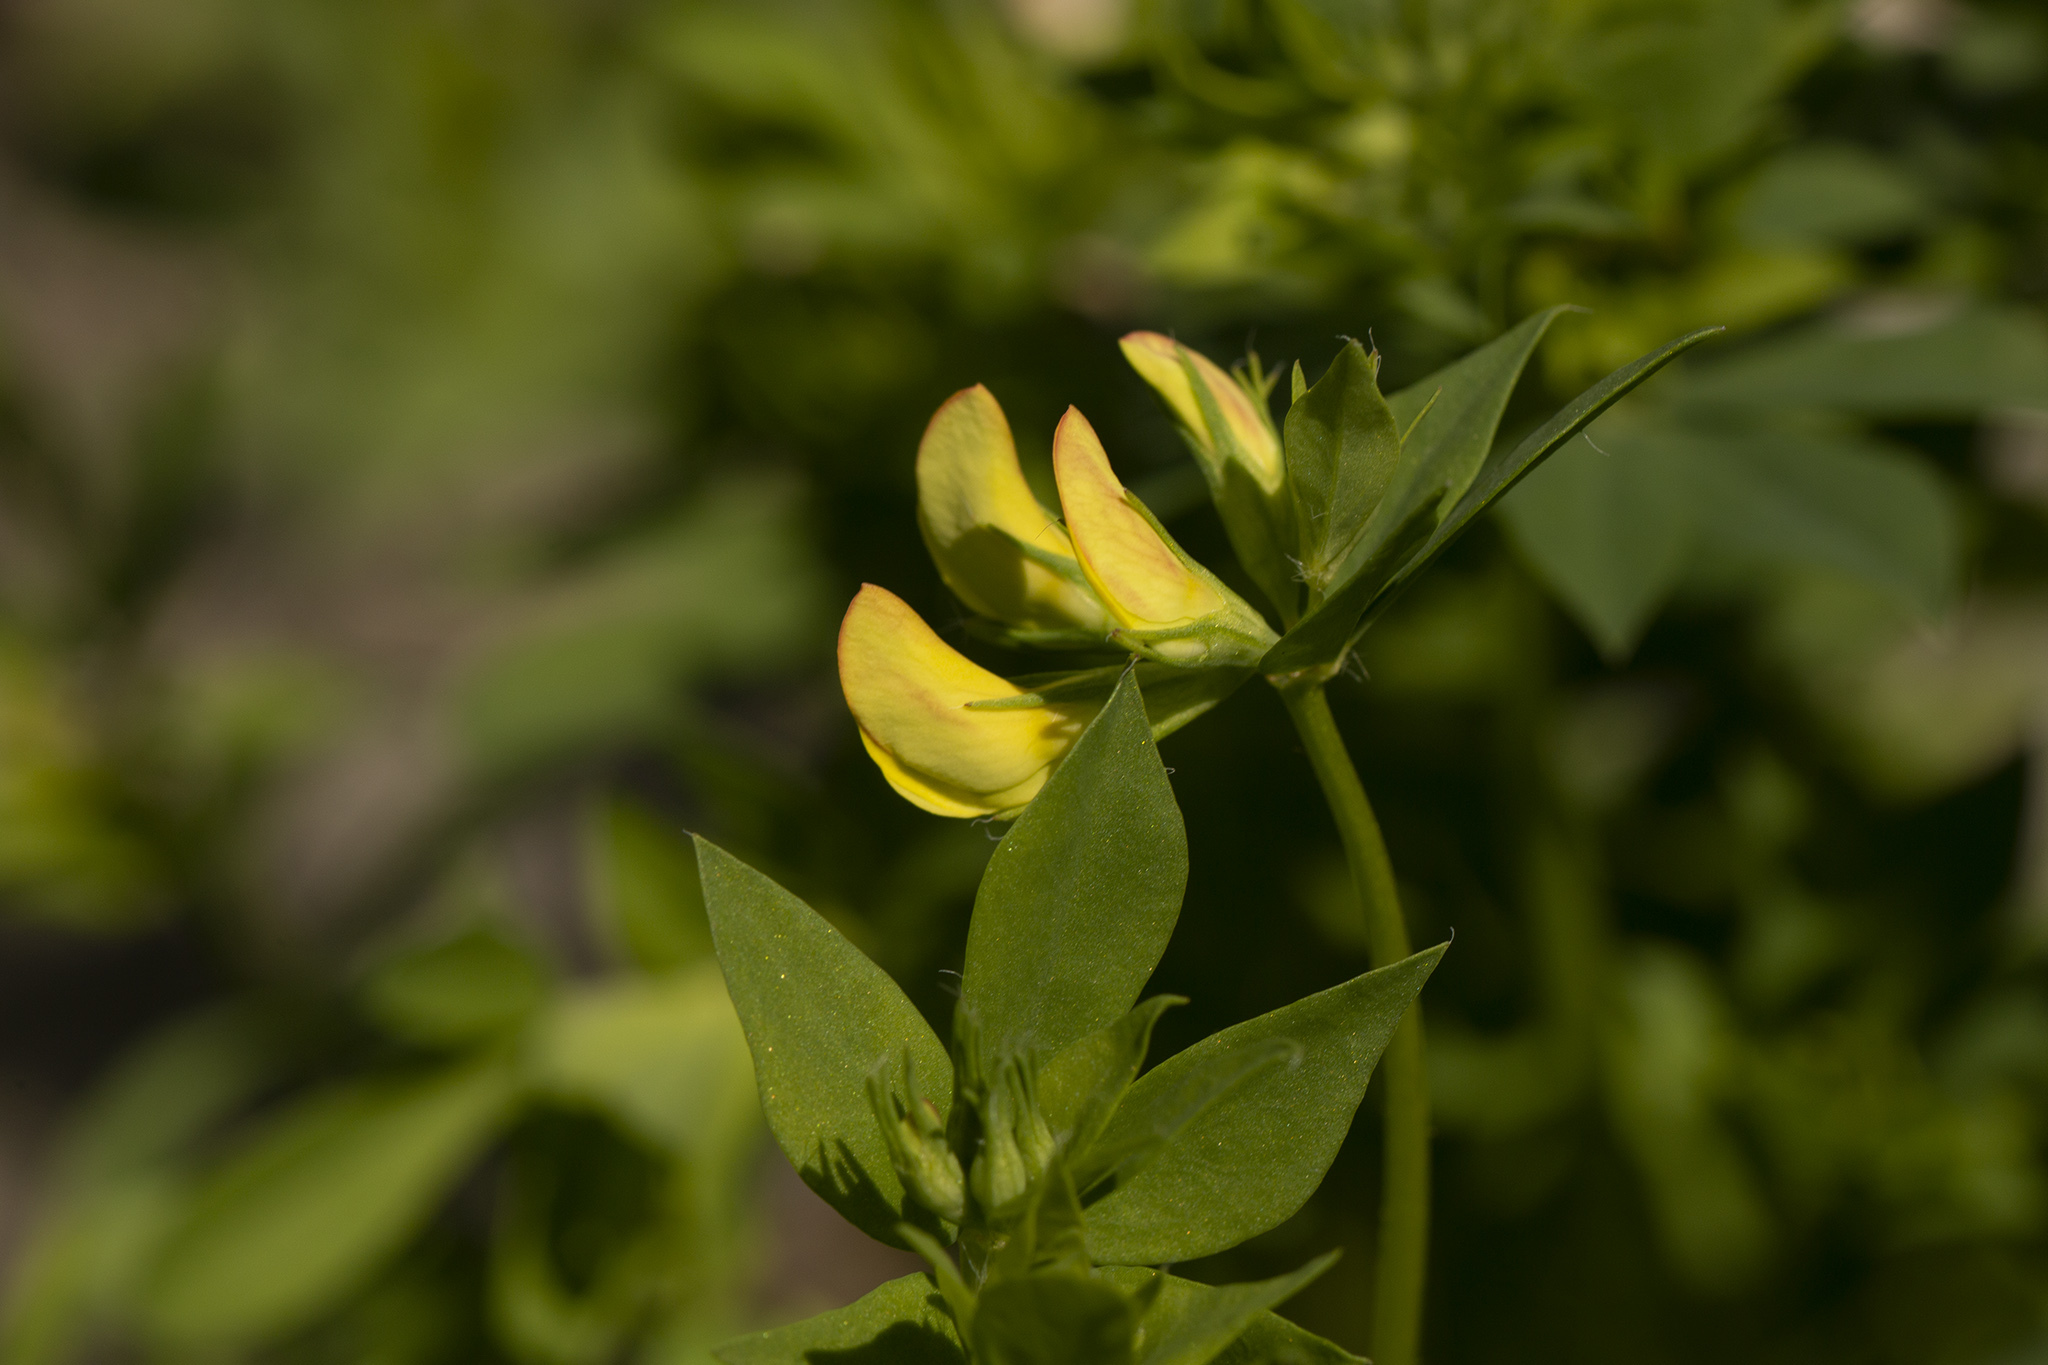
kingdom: Plantae
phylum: Tracheophyta
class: Magnoliopsida
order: Fabales
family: Fabaceae
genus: Lotus
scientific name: Lotus corniculatus
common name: Common bird's-foot-trefoil
